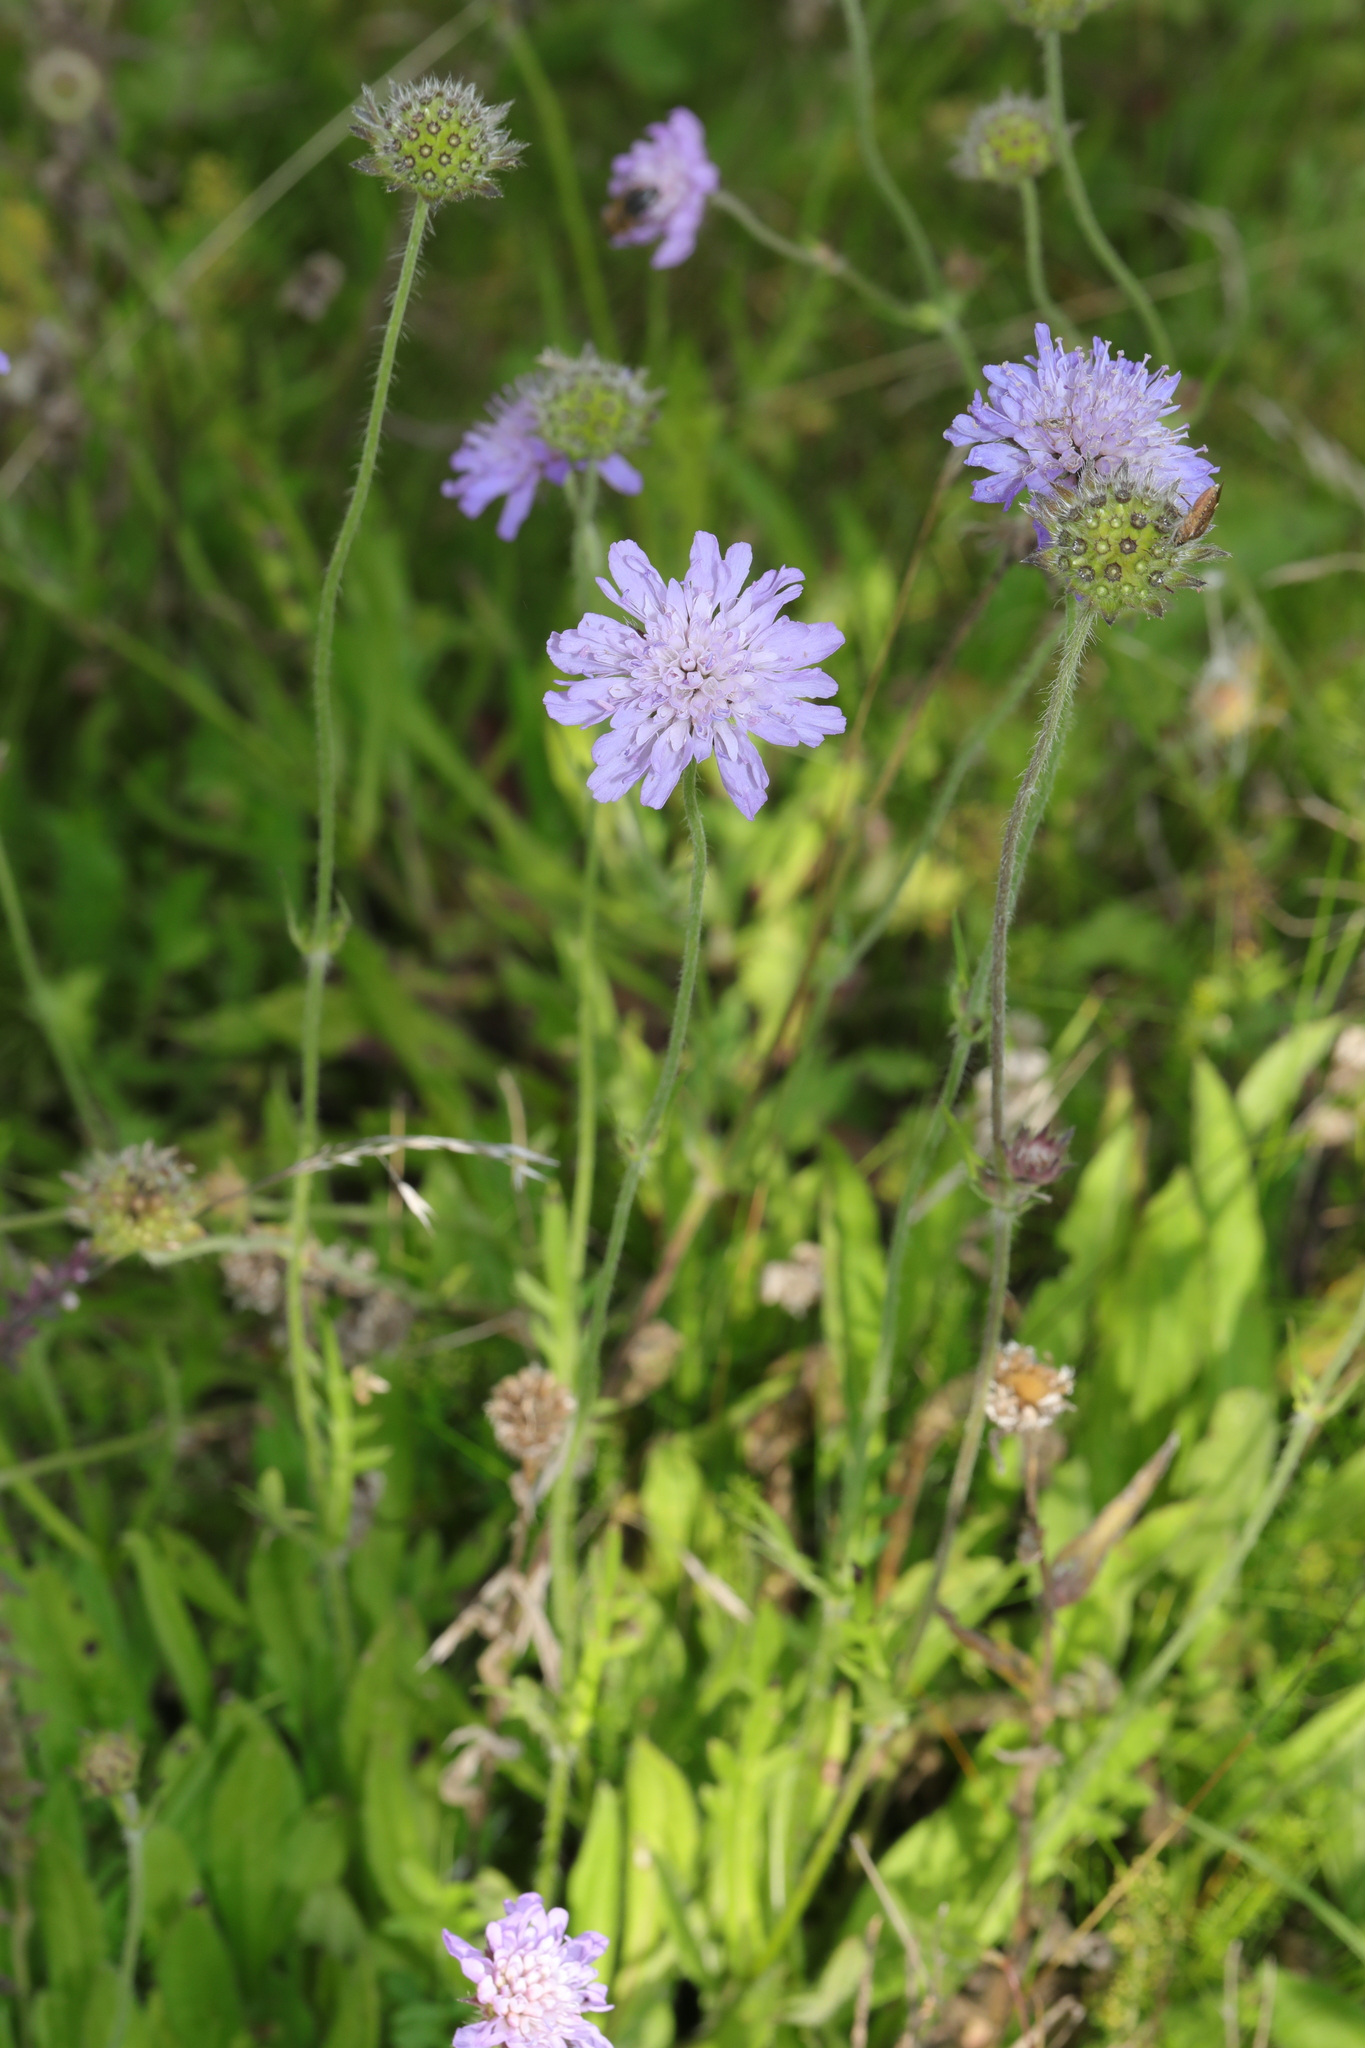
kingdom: Plantae
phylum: Tracheophyta
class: Magnoliopsida
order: Dipsacales
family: Caprifoliaceae
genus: Knautia
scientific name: Knautia arvensis
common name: Field scabiosa
